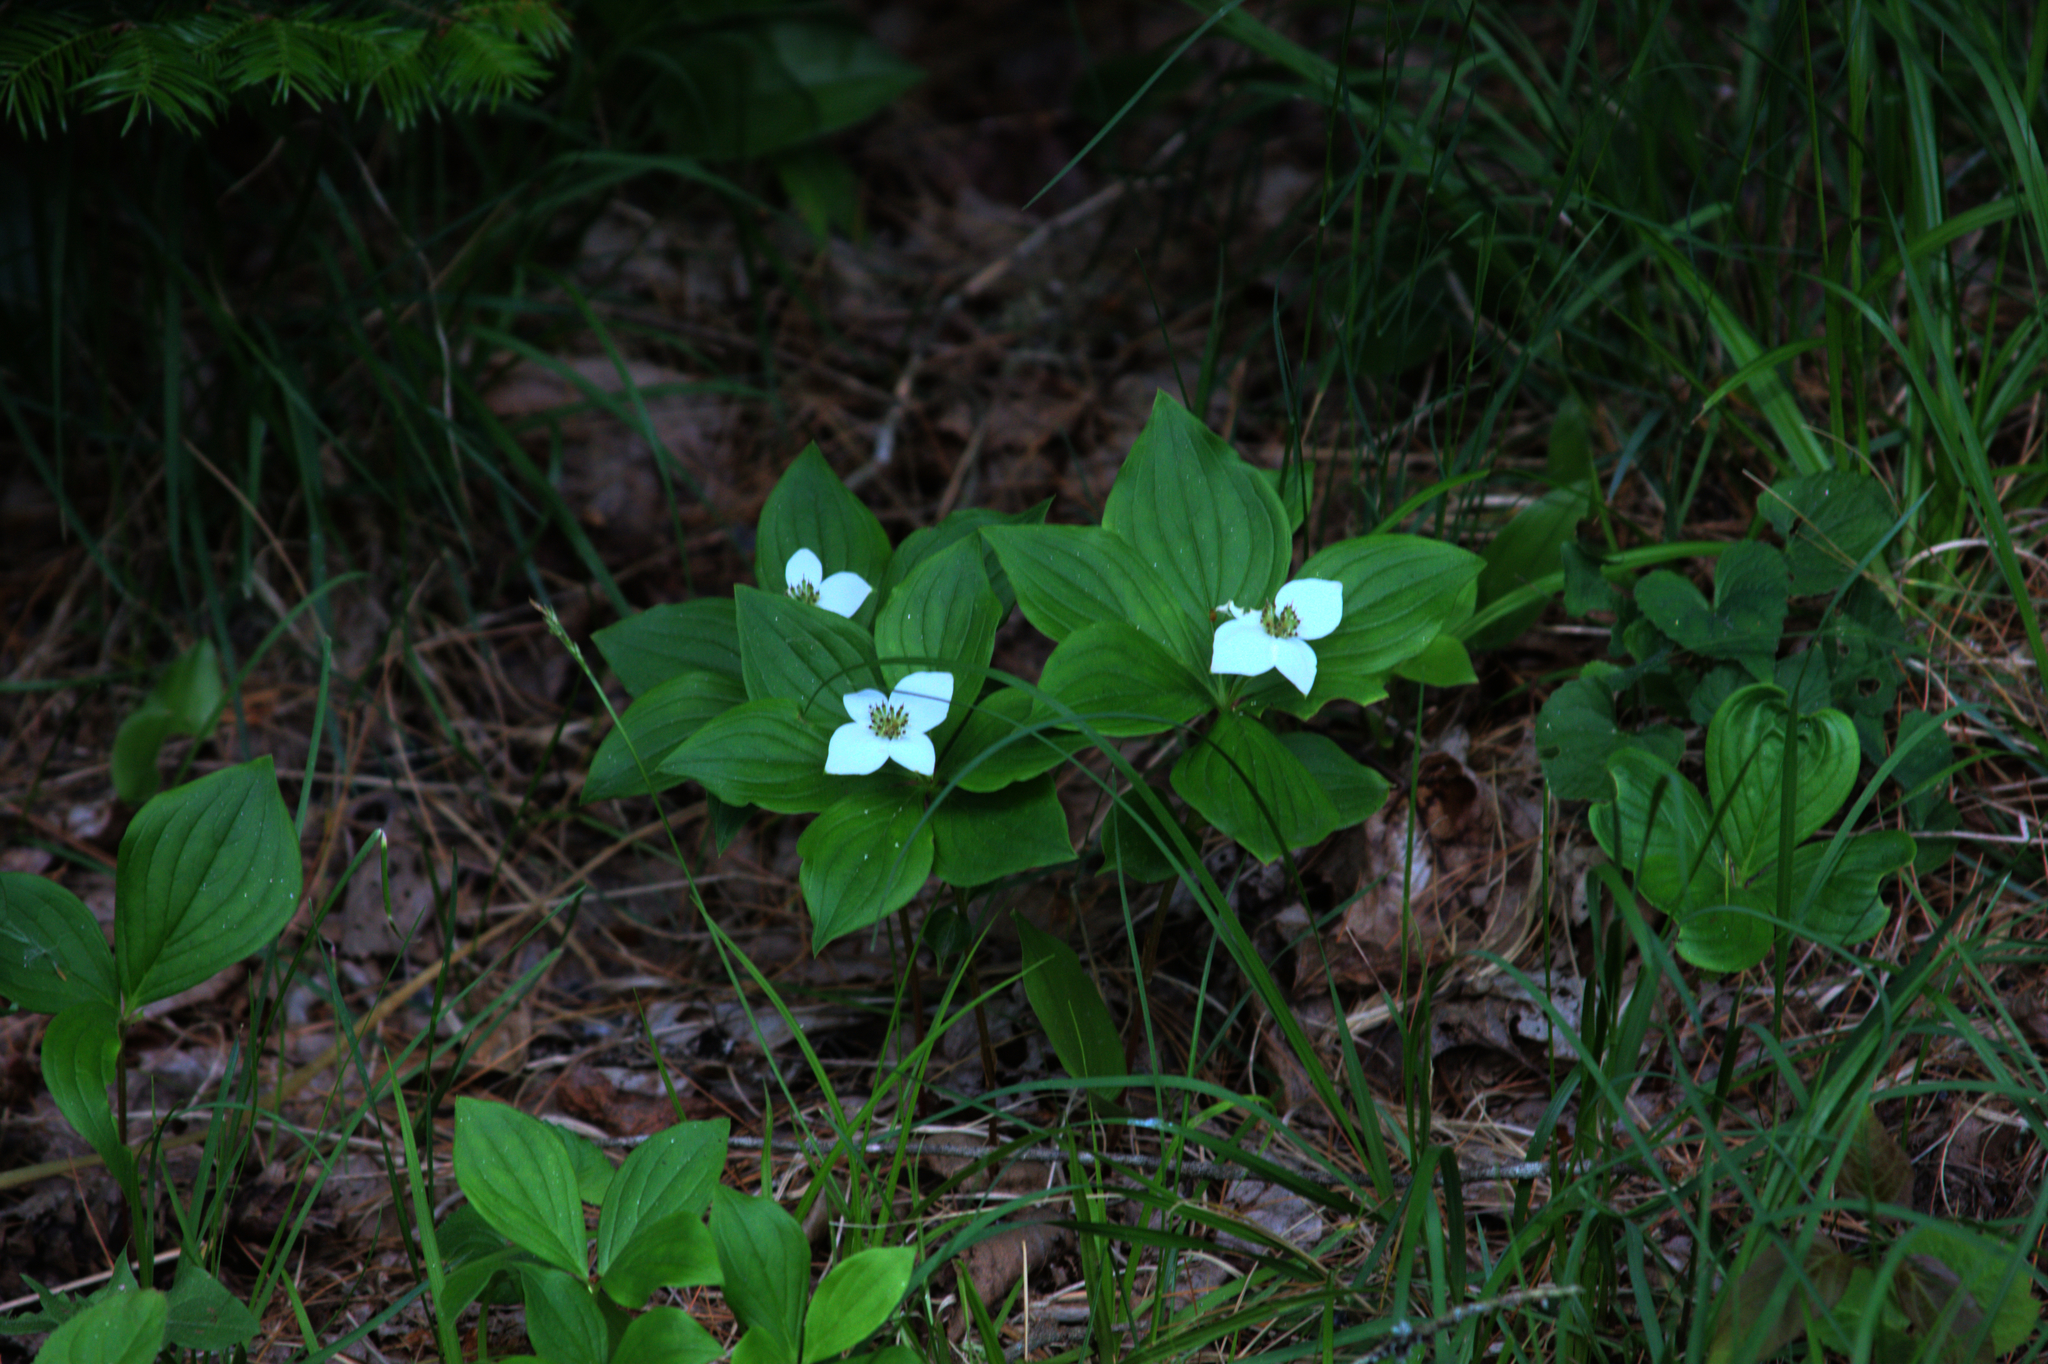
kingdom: Plantae
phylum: Tracheophyta
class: Magnoliopsida
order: Cornales
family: Cornaceae
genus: Cornus
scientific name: Cornus canadensis
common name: Creeping dogwood
